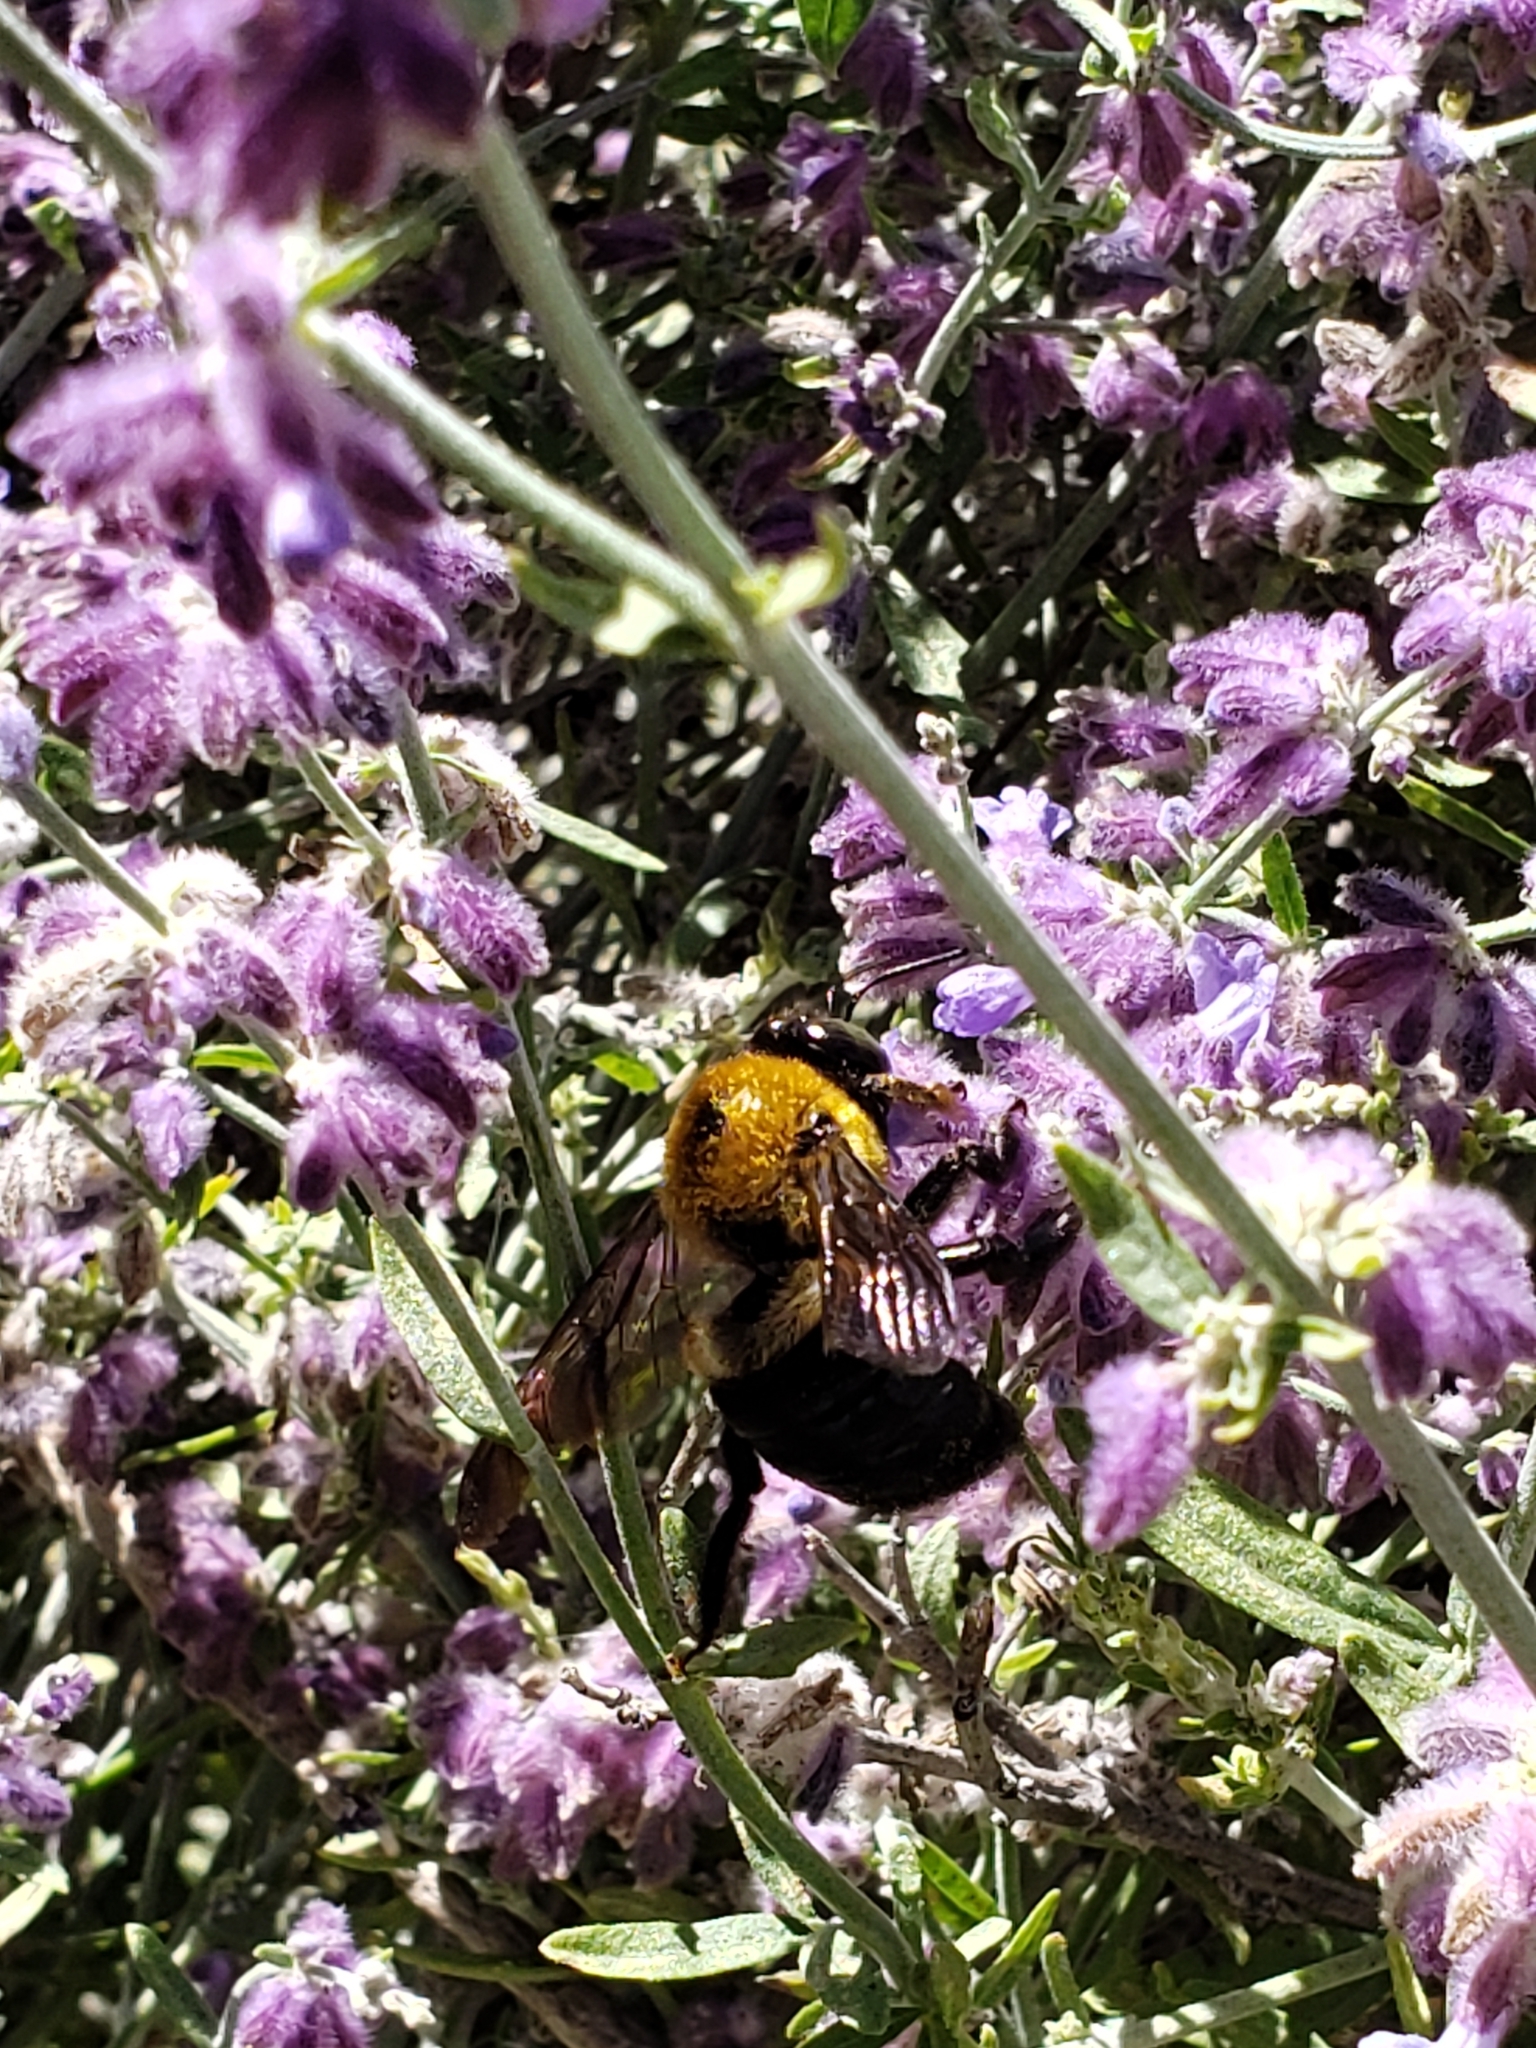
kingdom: Animalia
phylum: Arthropoda
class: Insecta
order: Hymenoptera
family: Apidae
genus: Xylocopa
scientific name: Xylocopa virginica
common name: Carpenter bee
